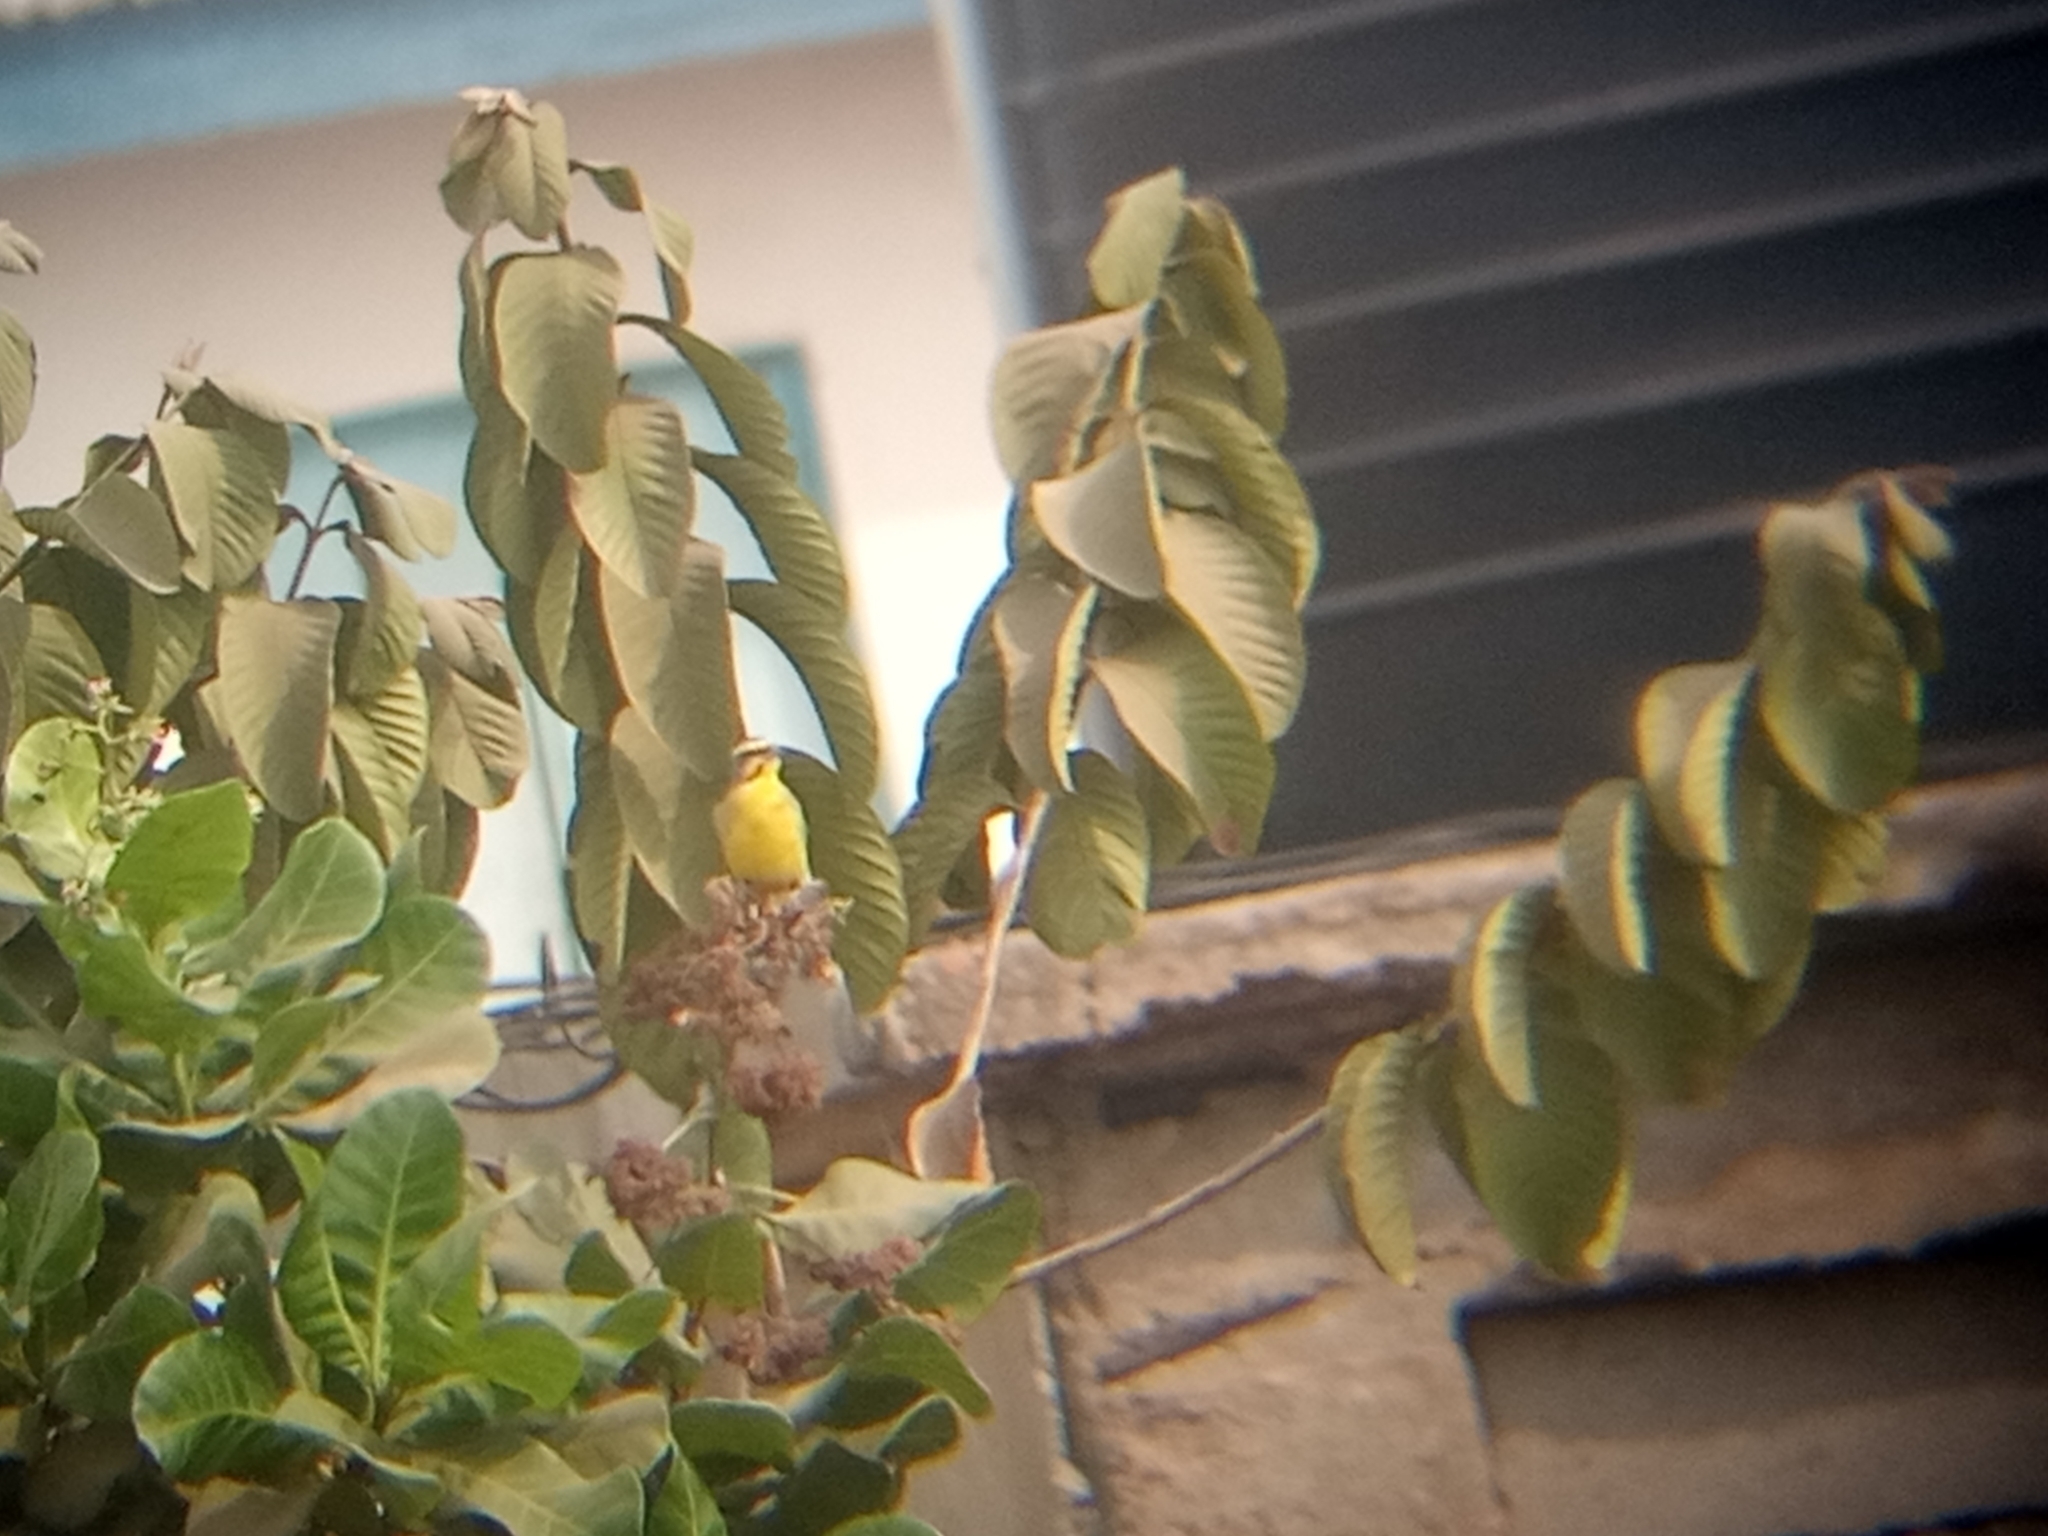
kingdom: Animalia
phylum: Chordata
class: Aves
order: Passeriformes
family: Fringillidae
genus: Crithagra
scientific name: Crithagra mozambica
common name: Yellow-fronted canary
